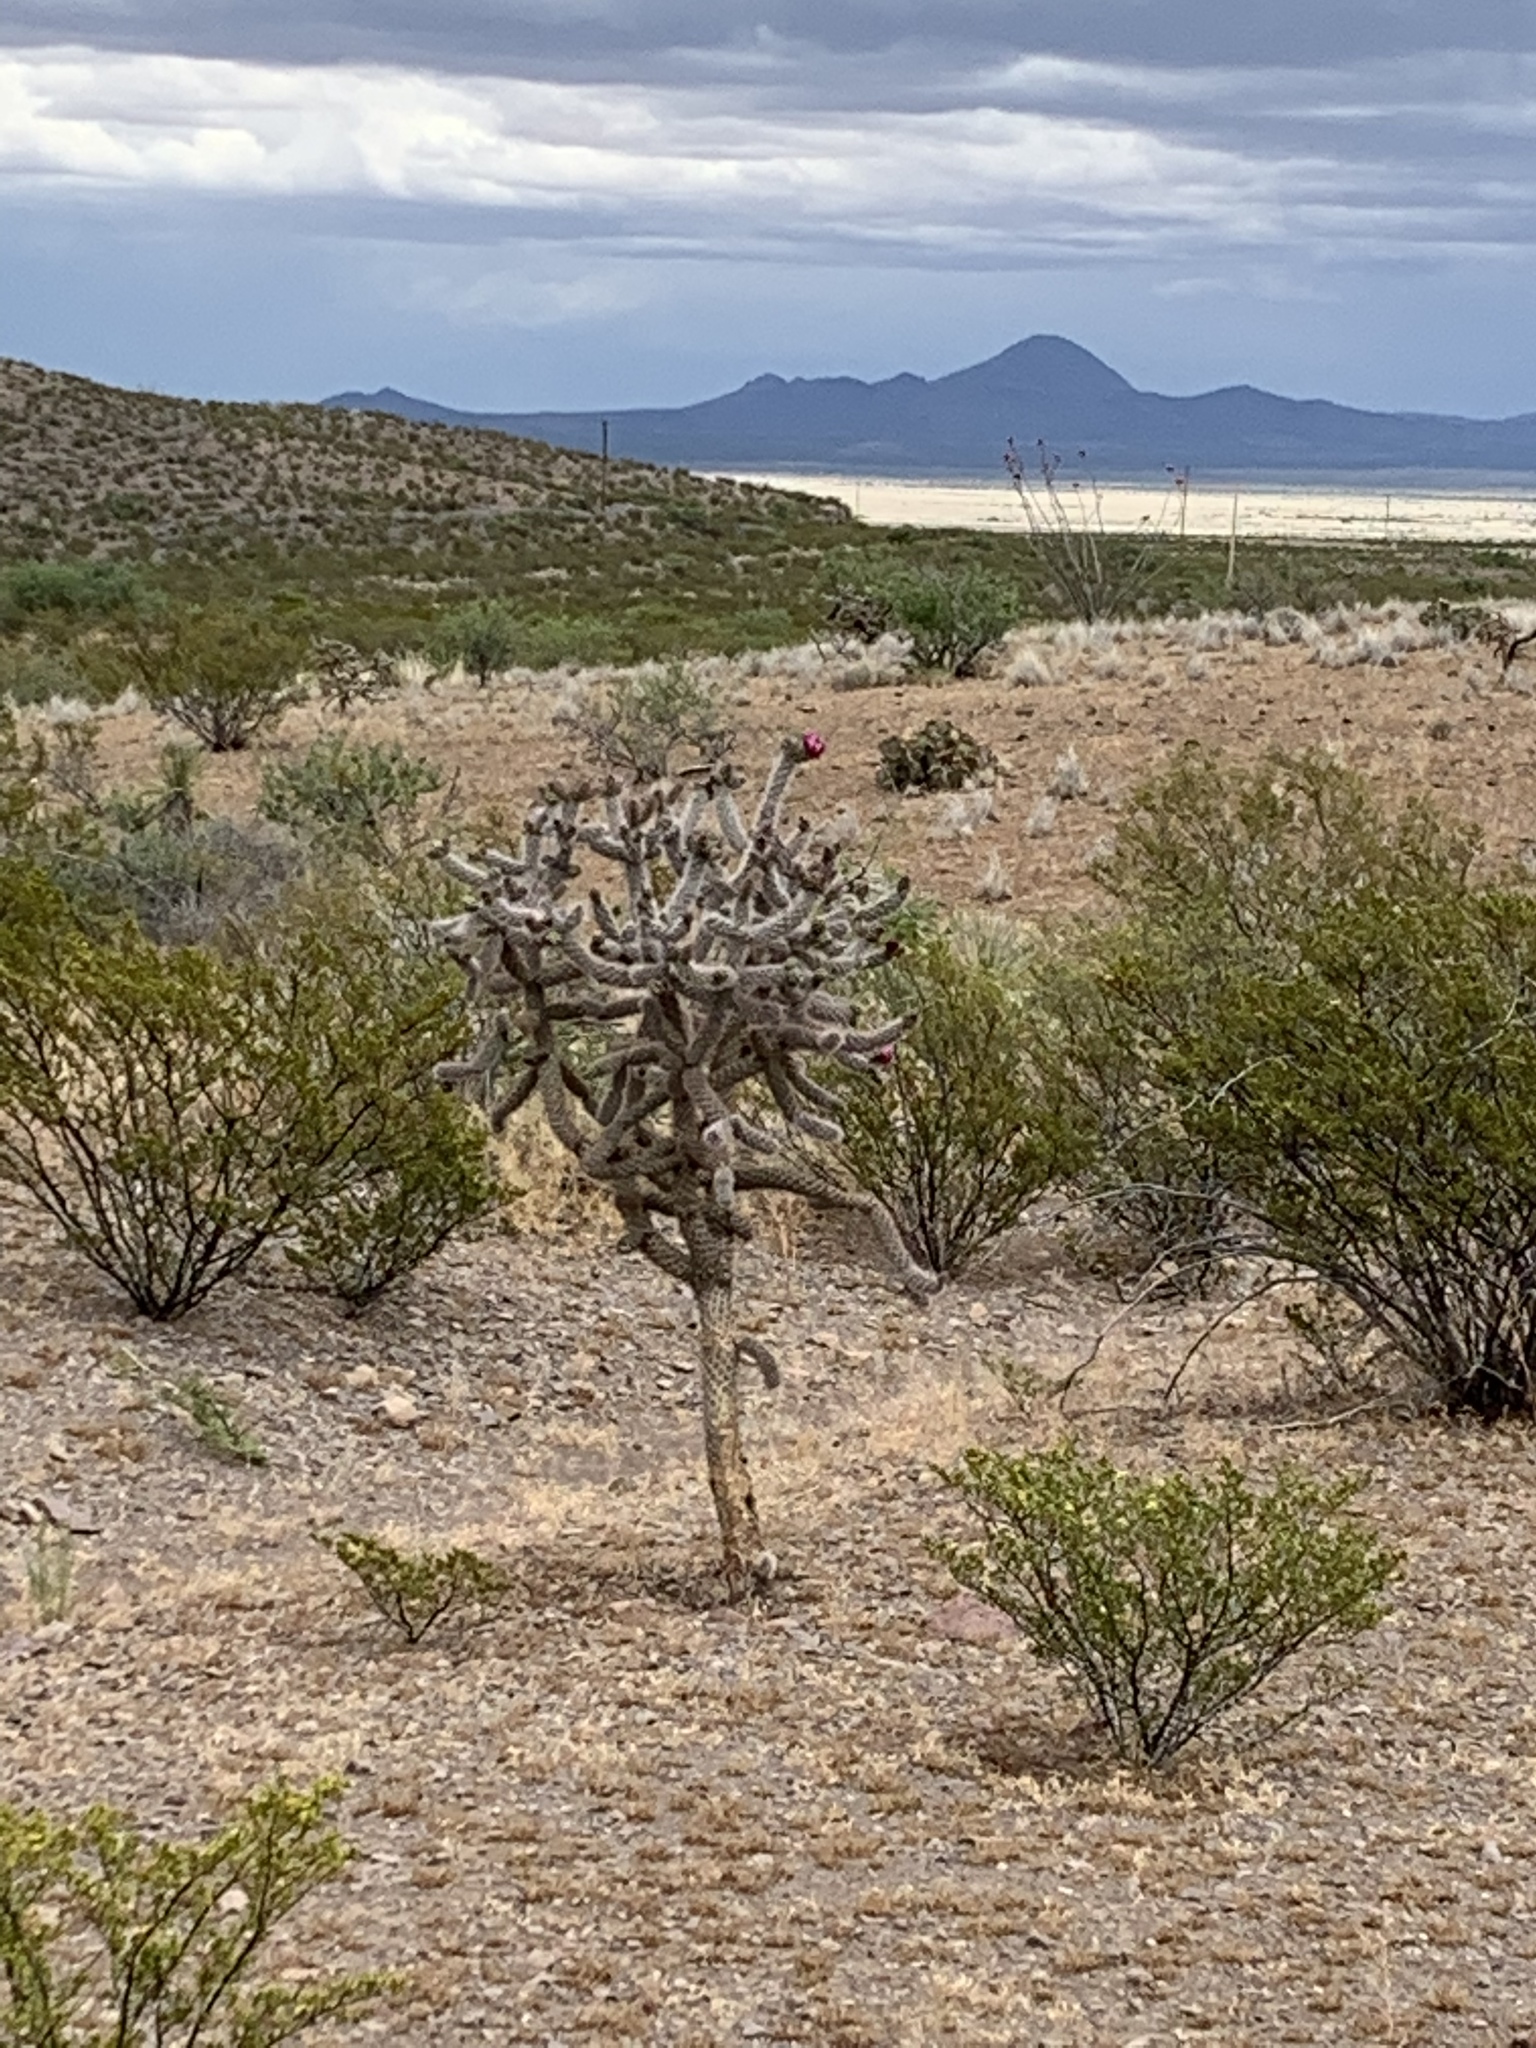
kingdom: Plantae
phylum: Tracheophyta
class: Magnoliopsida
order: Caryophyllales
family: Cactaceae
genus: Cylindropuntia
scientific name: Cylindropuntia imbricata
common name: Candelabrum cactus
